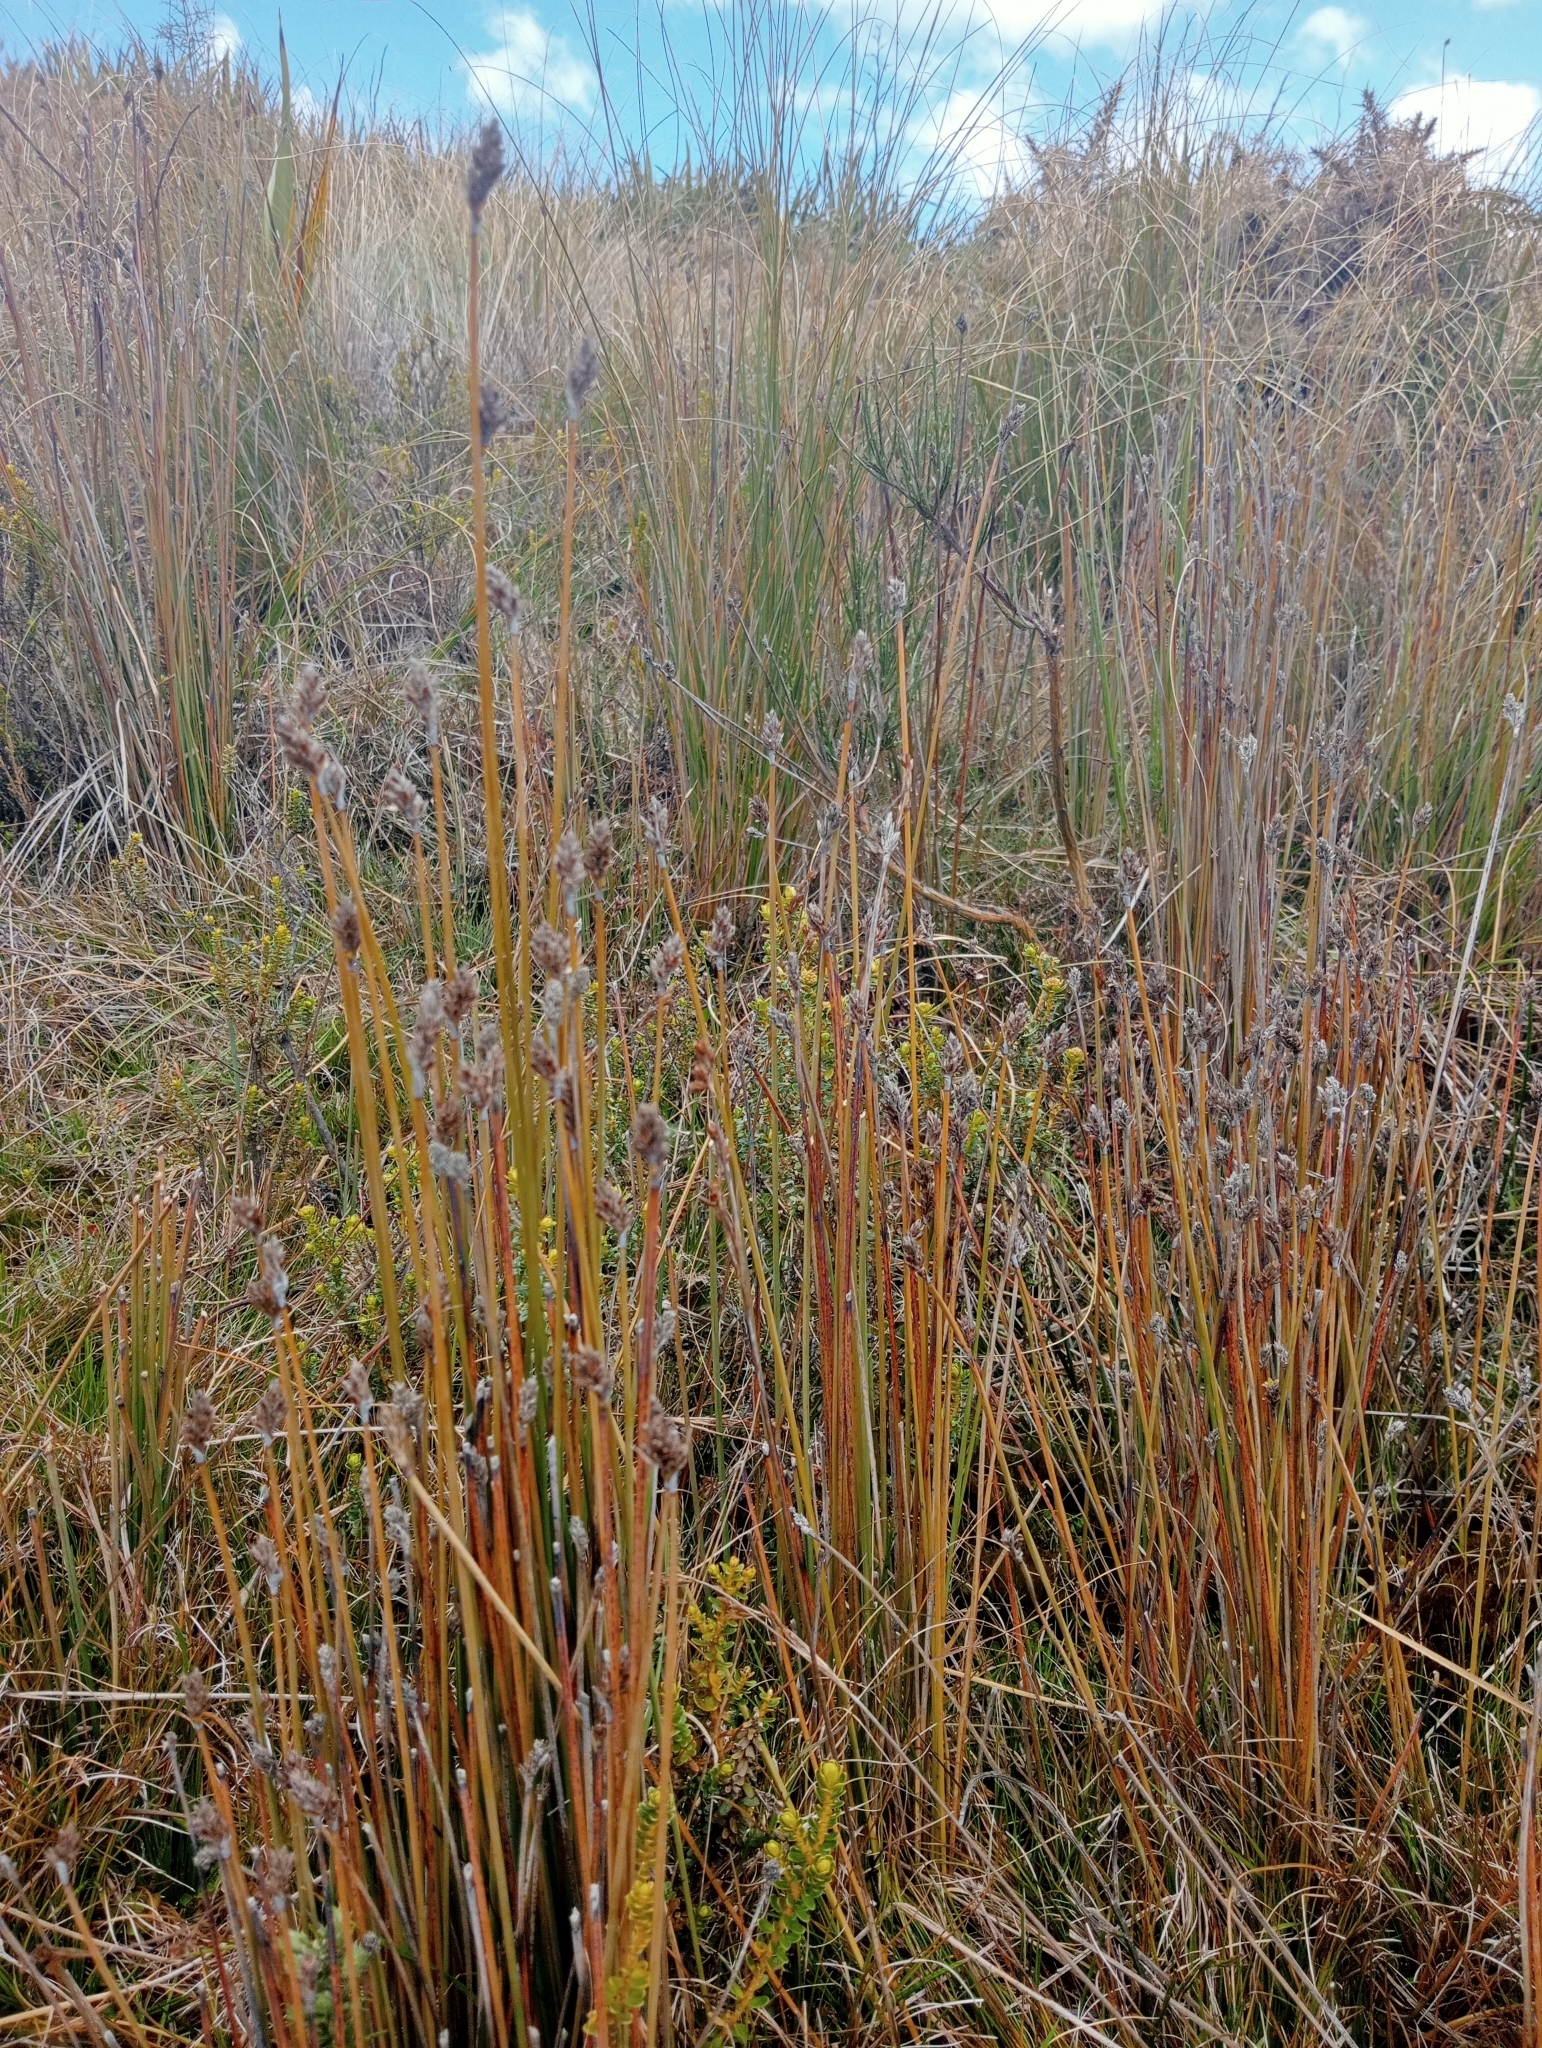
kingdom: Plantae
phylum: Tracheophyta
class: Liliopsida
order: Poales
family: Cyperaceae
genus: Lepidosperma
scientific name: Lepidosperma australe
